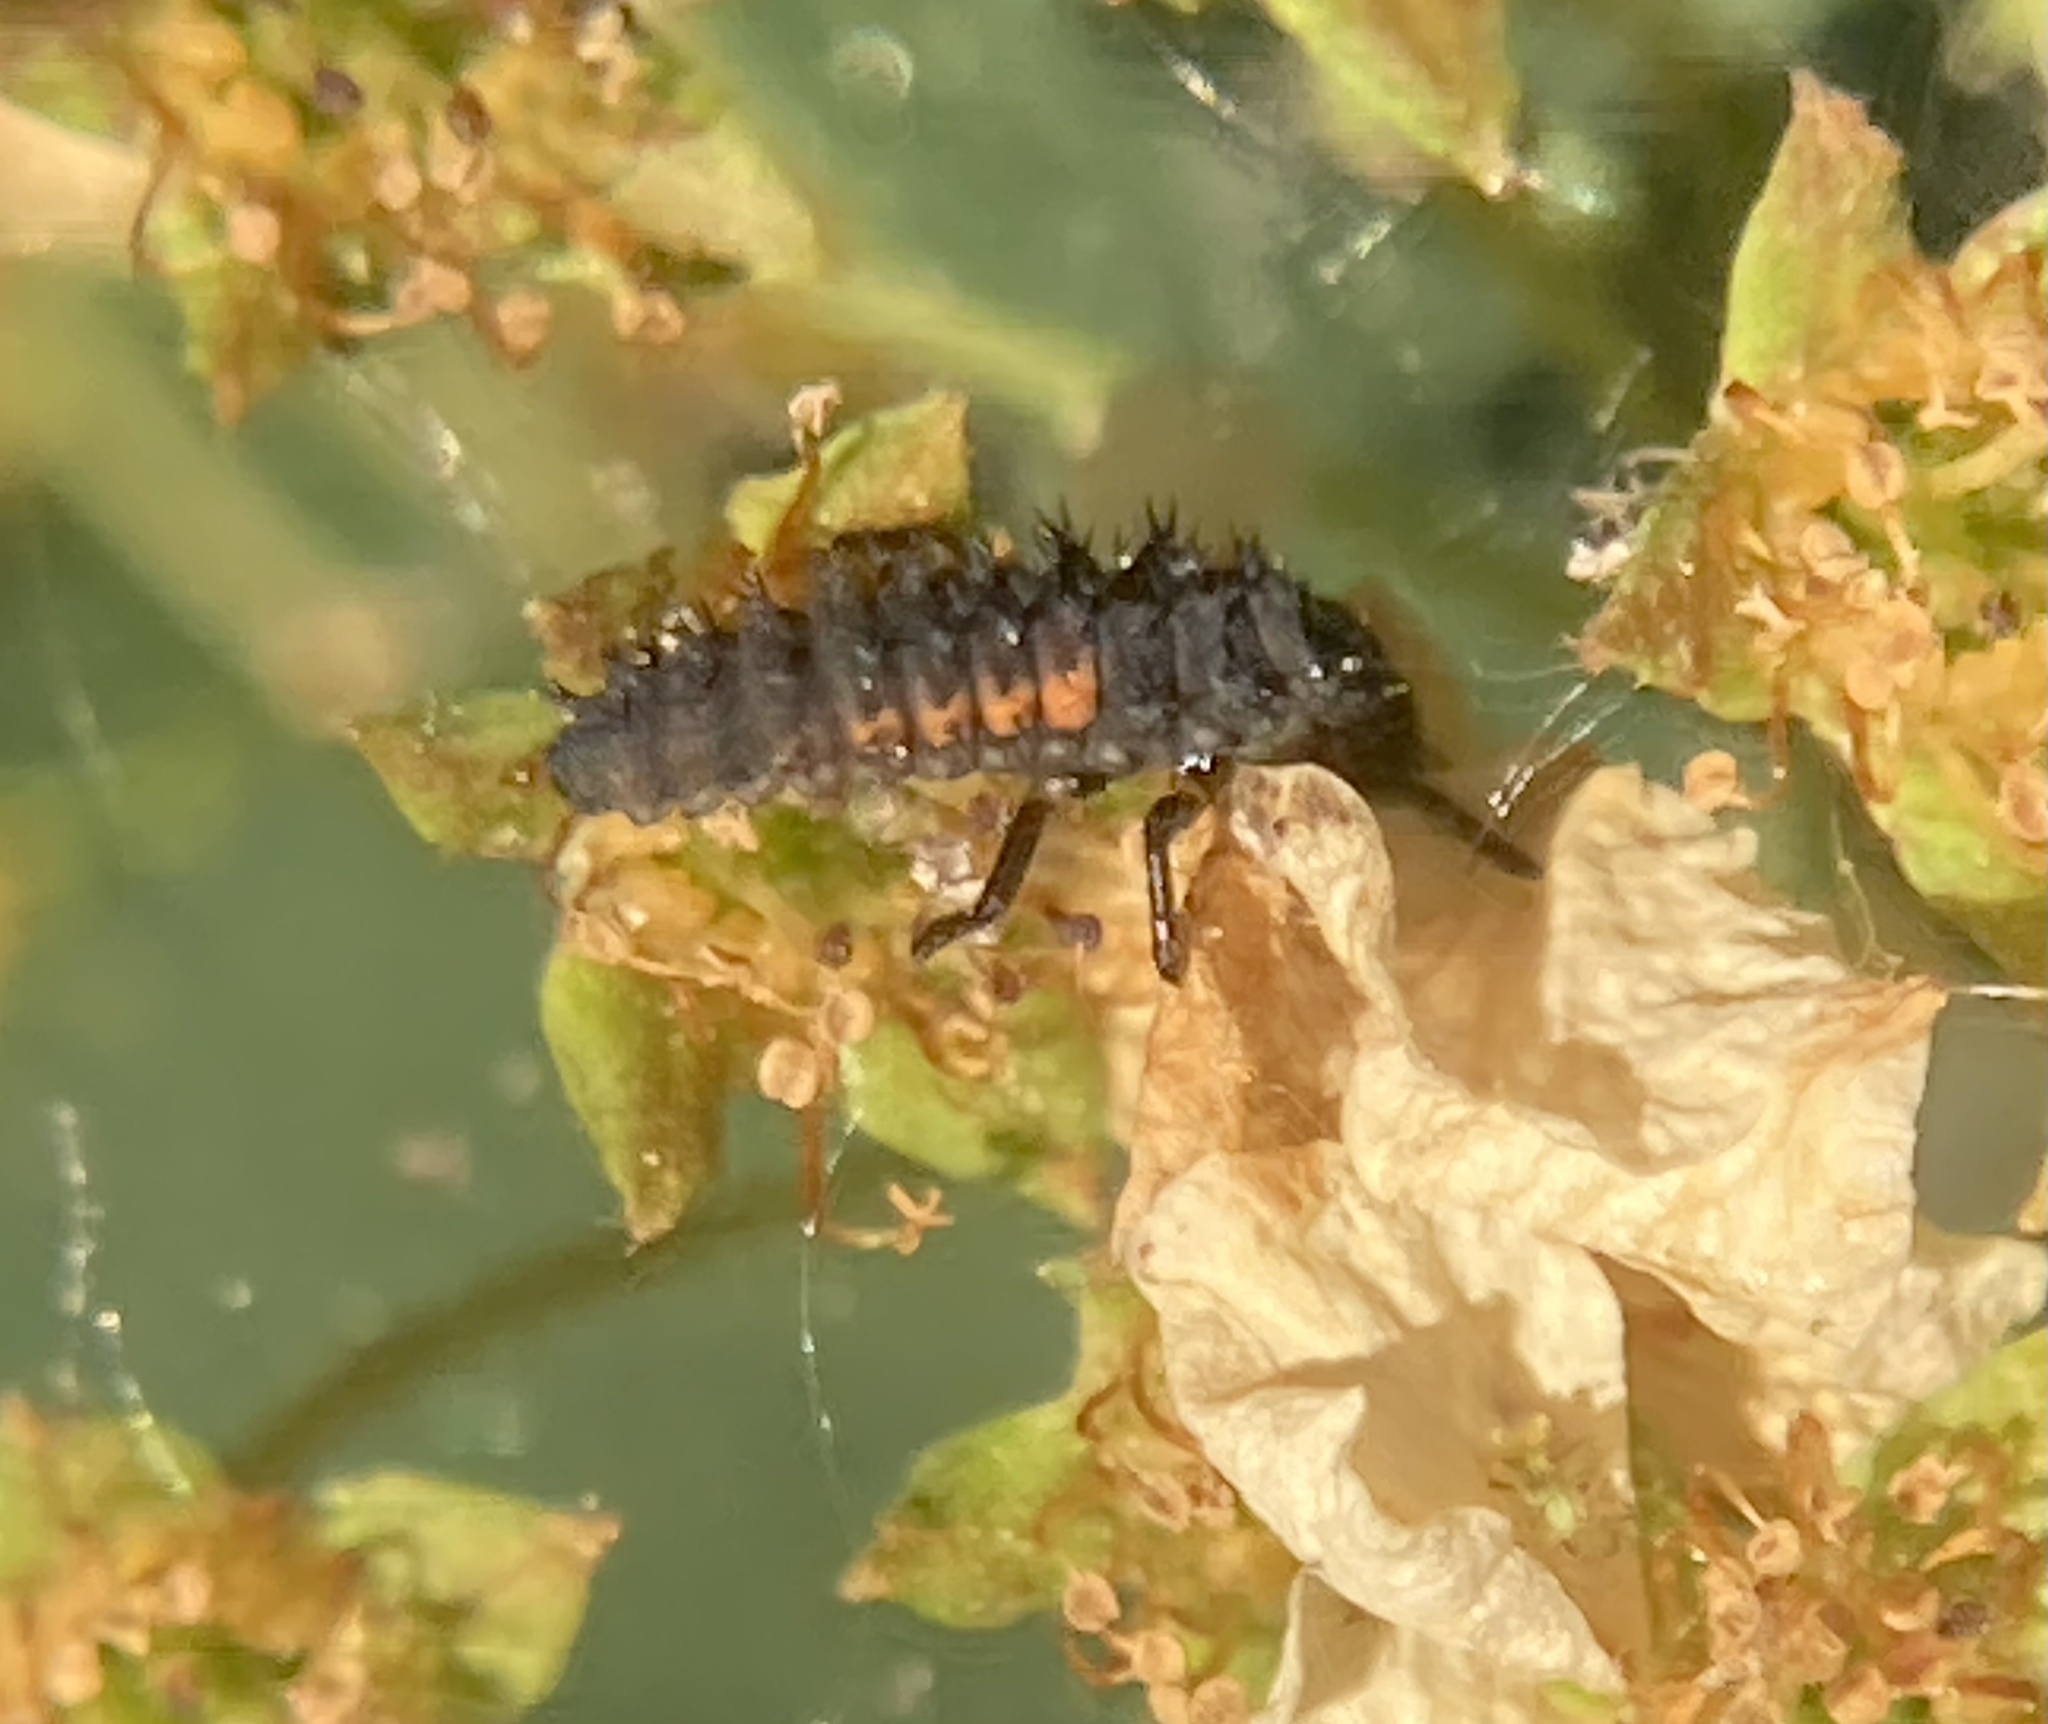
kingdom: Animalia
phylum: Arthropoda
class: Insecta
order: Coleoptera
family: Coccinellidae
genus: Harmonia
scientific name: Harmonia axyridis
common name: Harlequin ladybird
